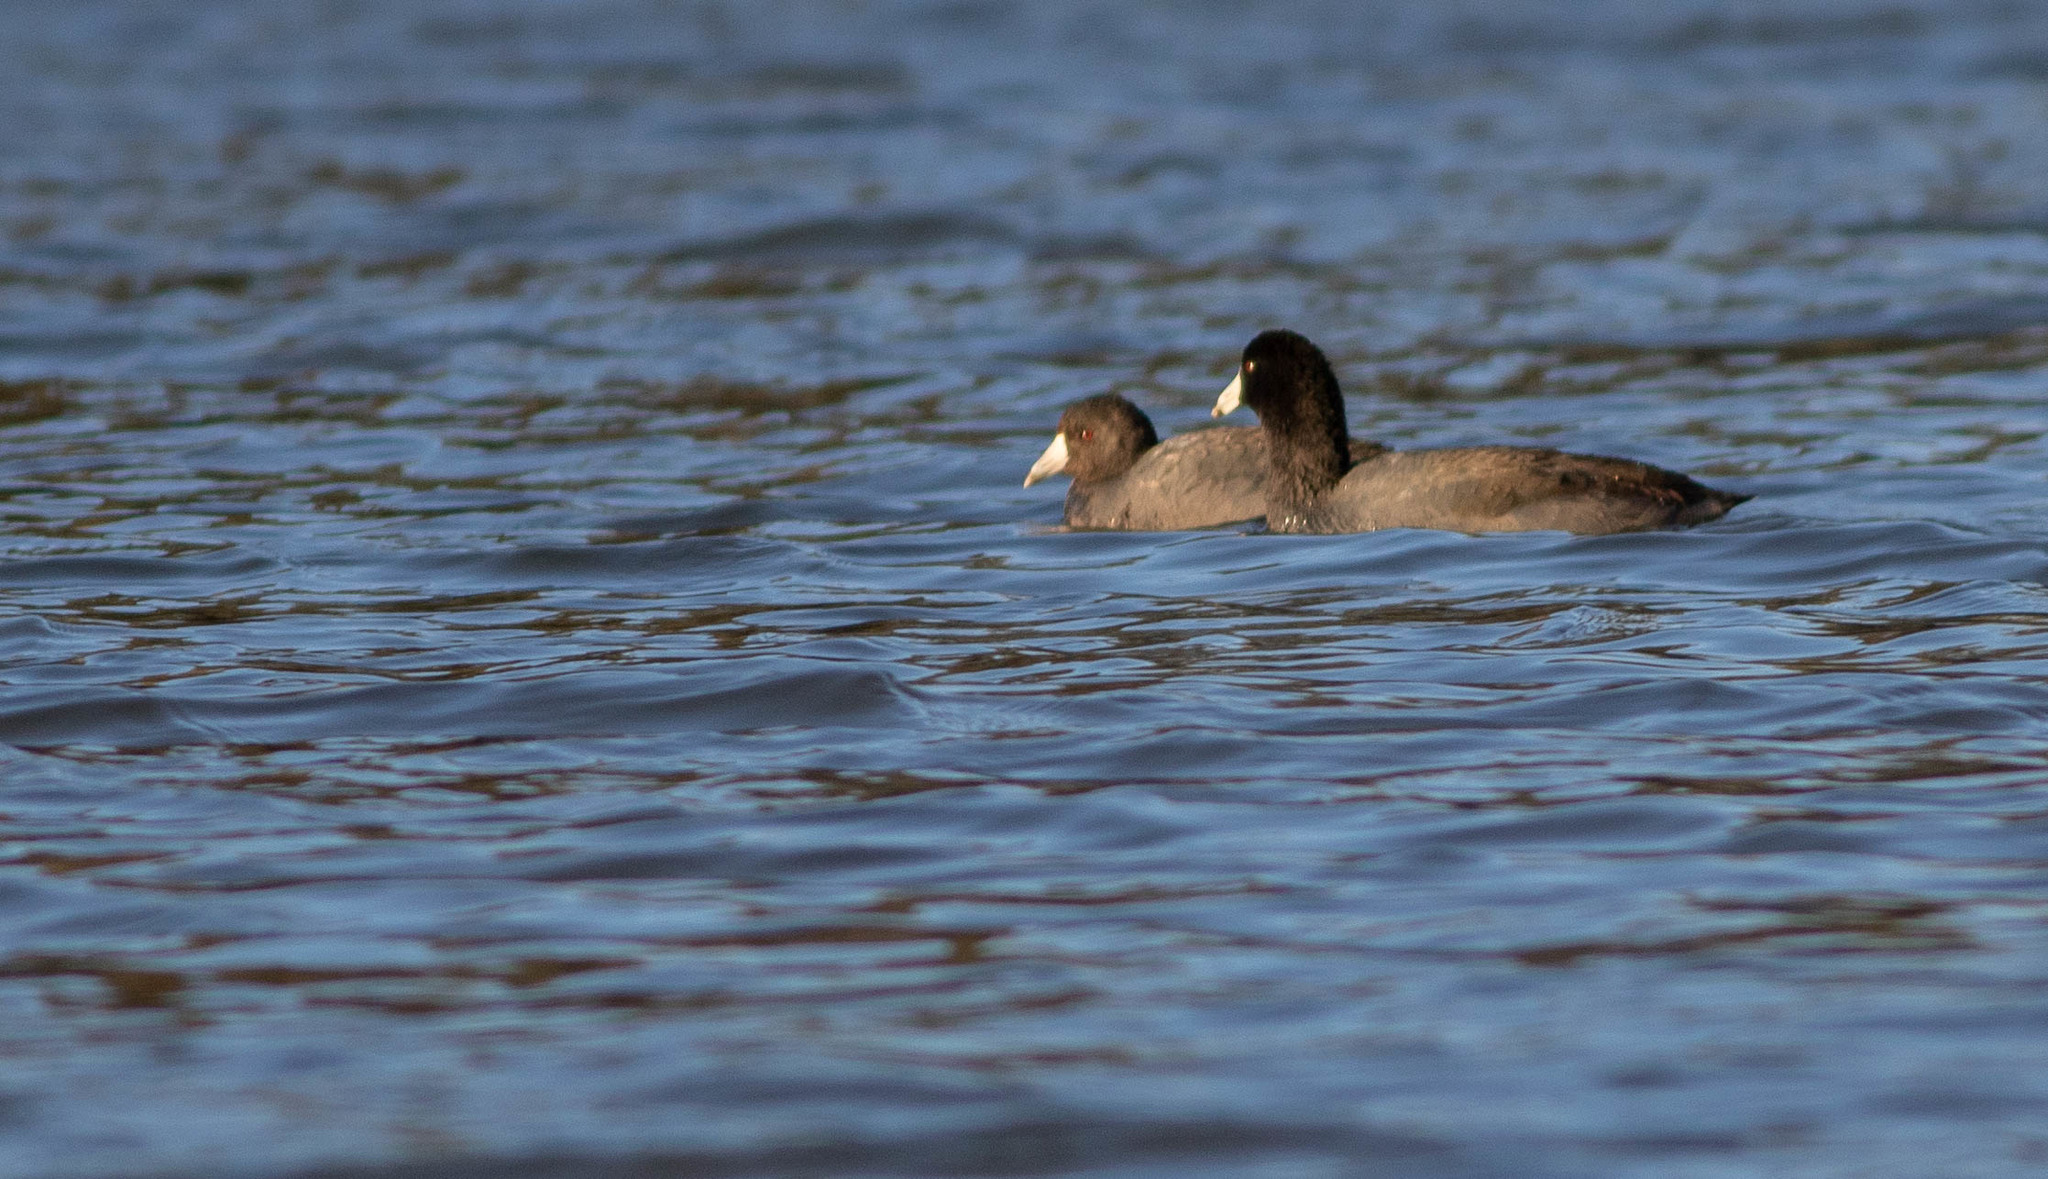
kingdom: Animalia
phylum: Chordata
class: Aves
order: Gruiformes
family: Rallidae
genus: Fulica
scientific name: Fulica americana
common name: American coot
